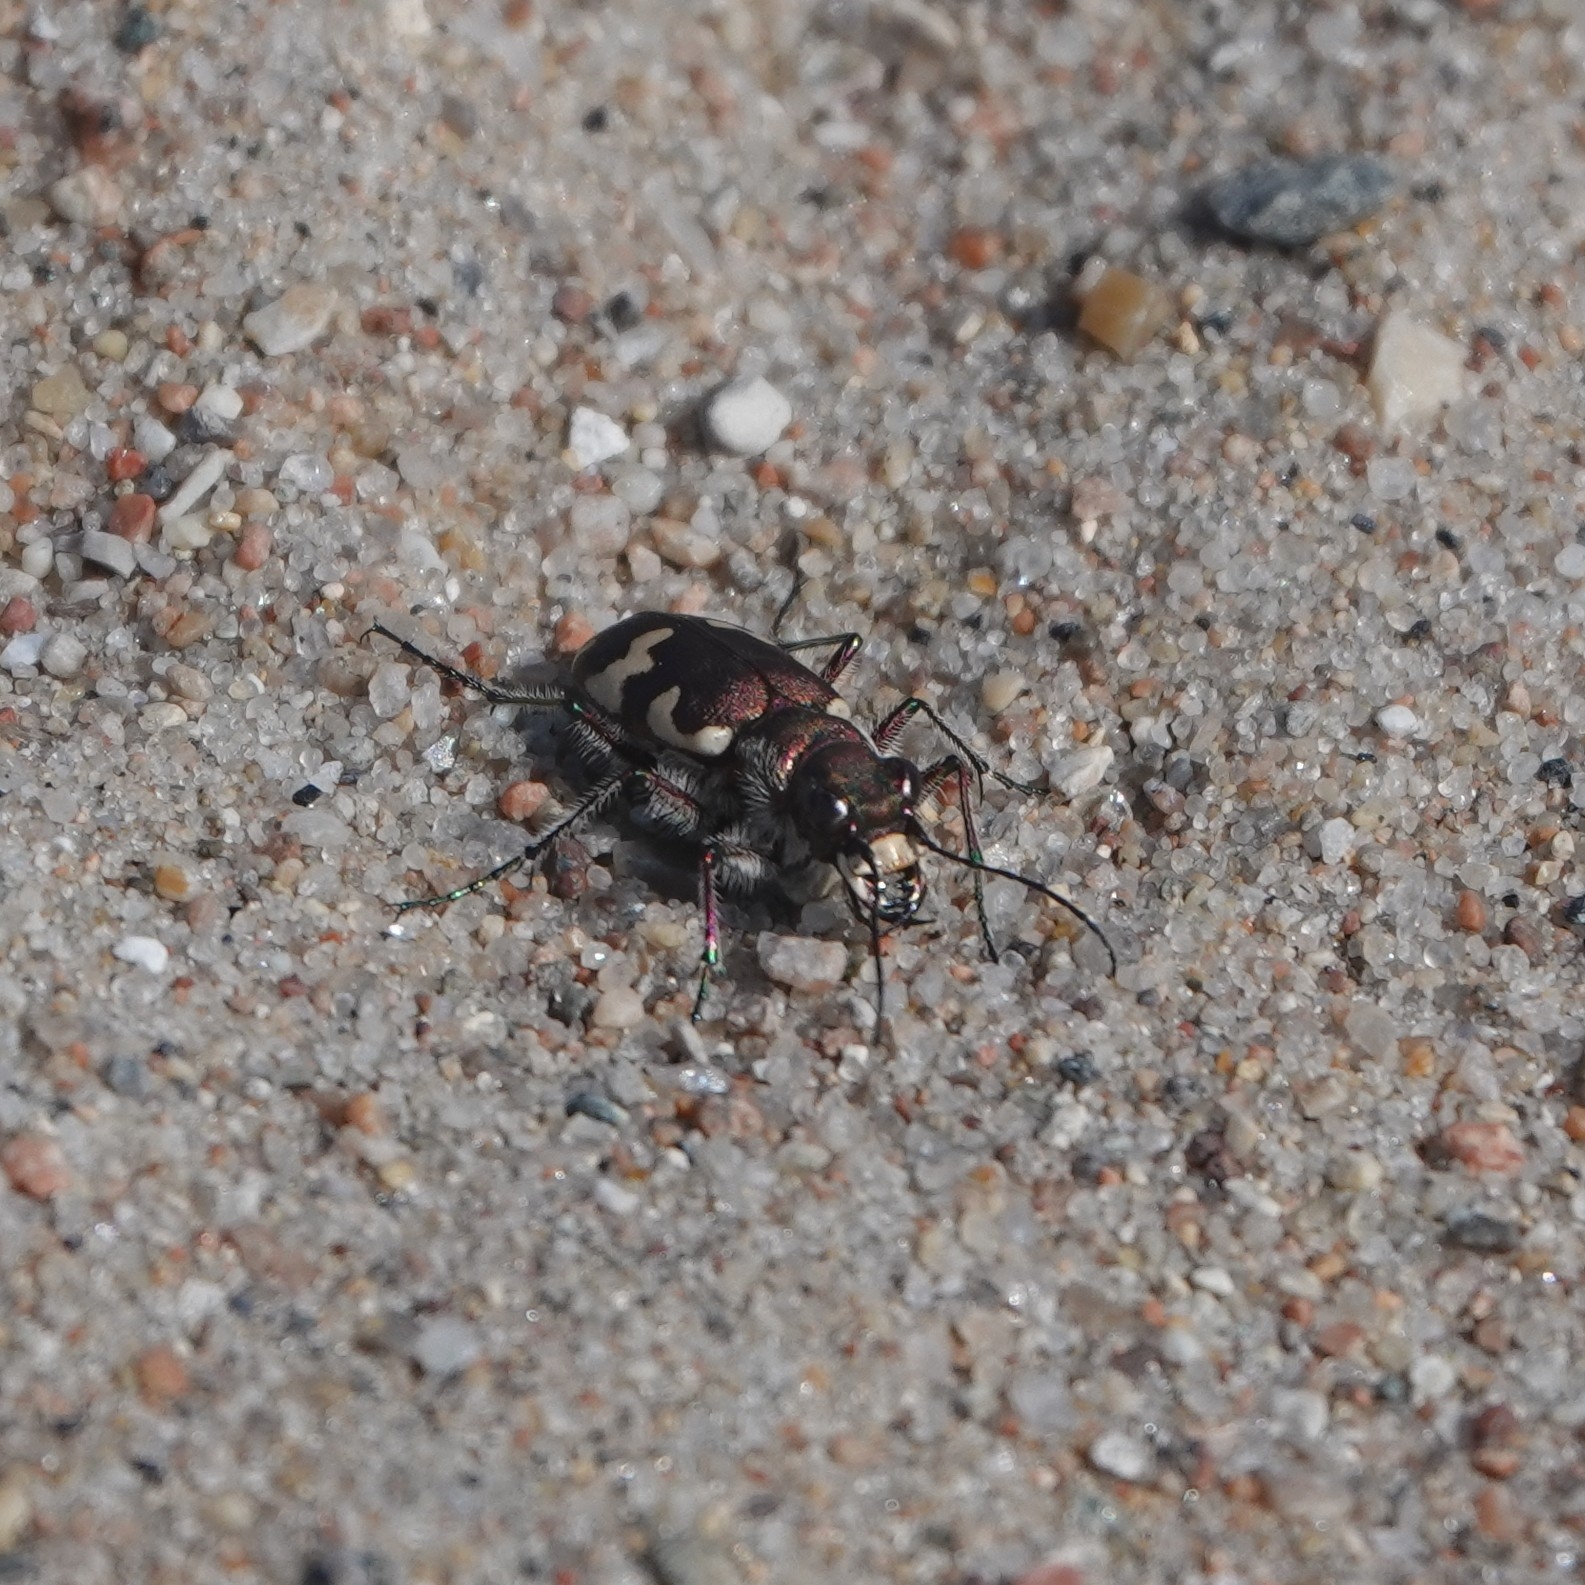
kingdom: Animalia
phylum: Arthropoda
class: Insecta
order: Coleoptera
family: Carabidae
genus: Cicindela
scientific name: Cicindela hybrida
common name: Northern dune tiger beetle
